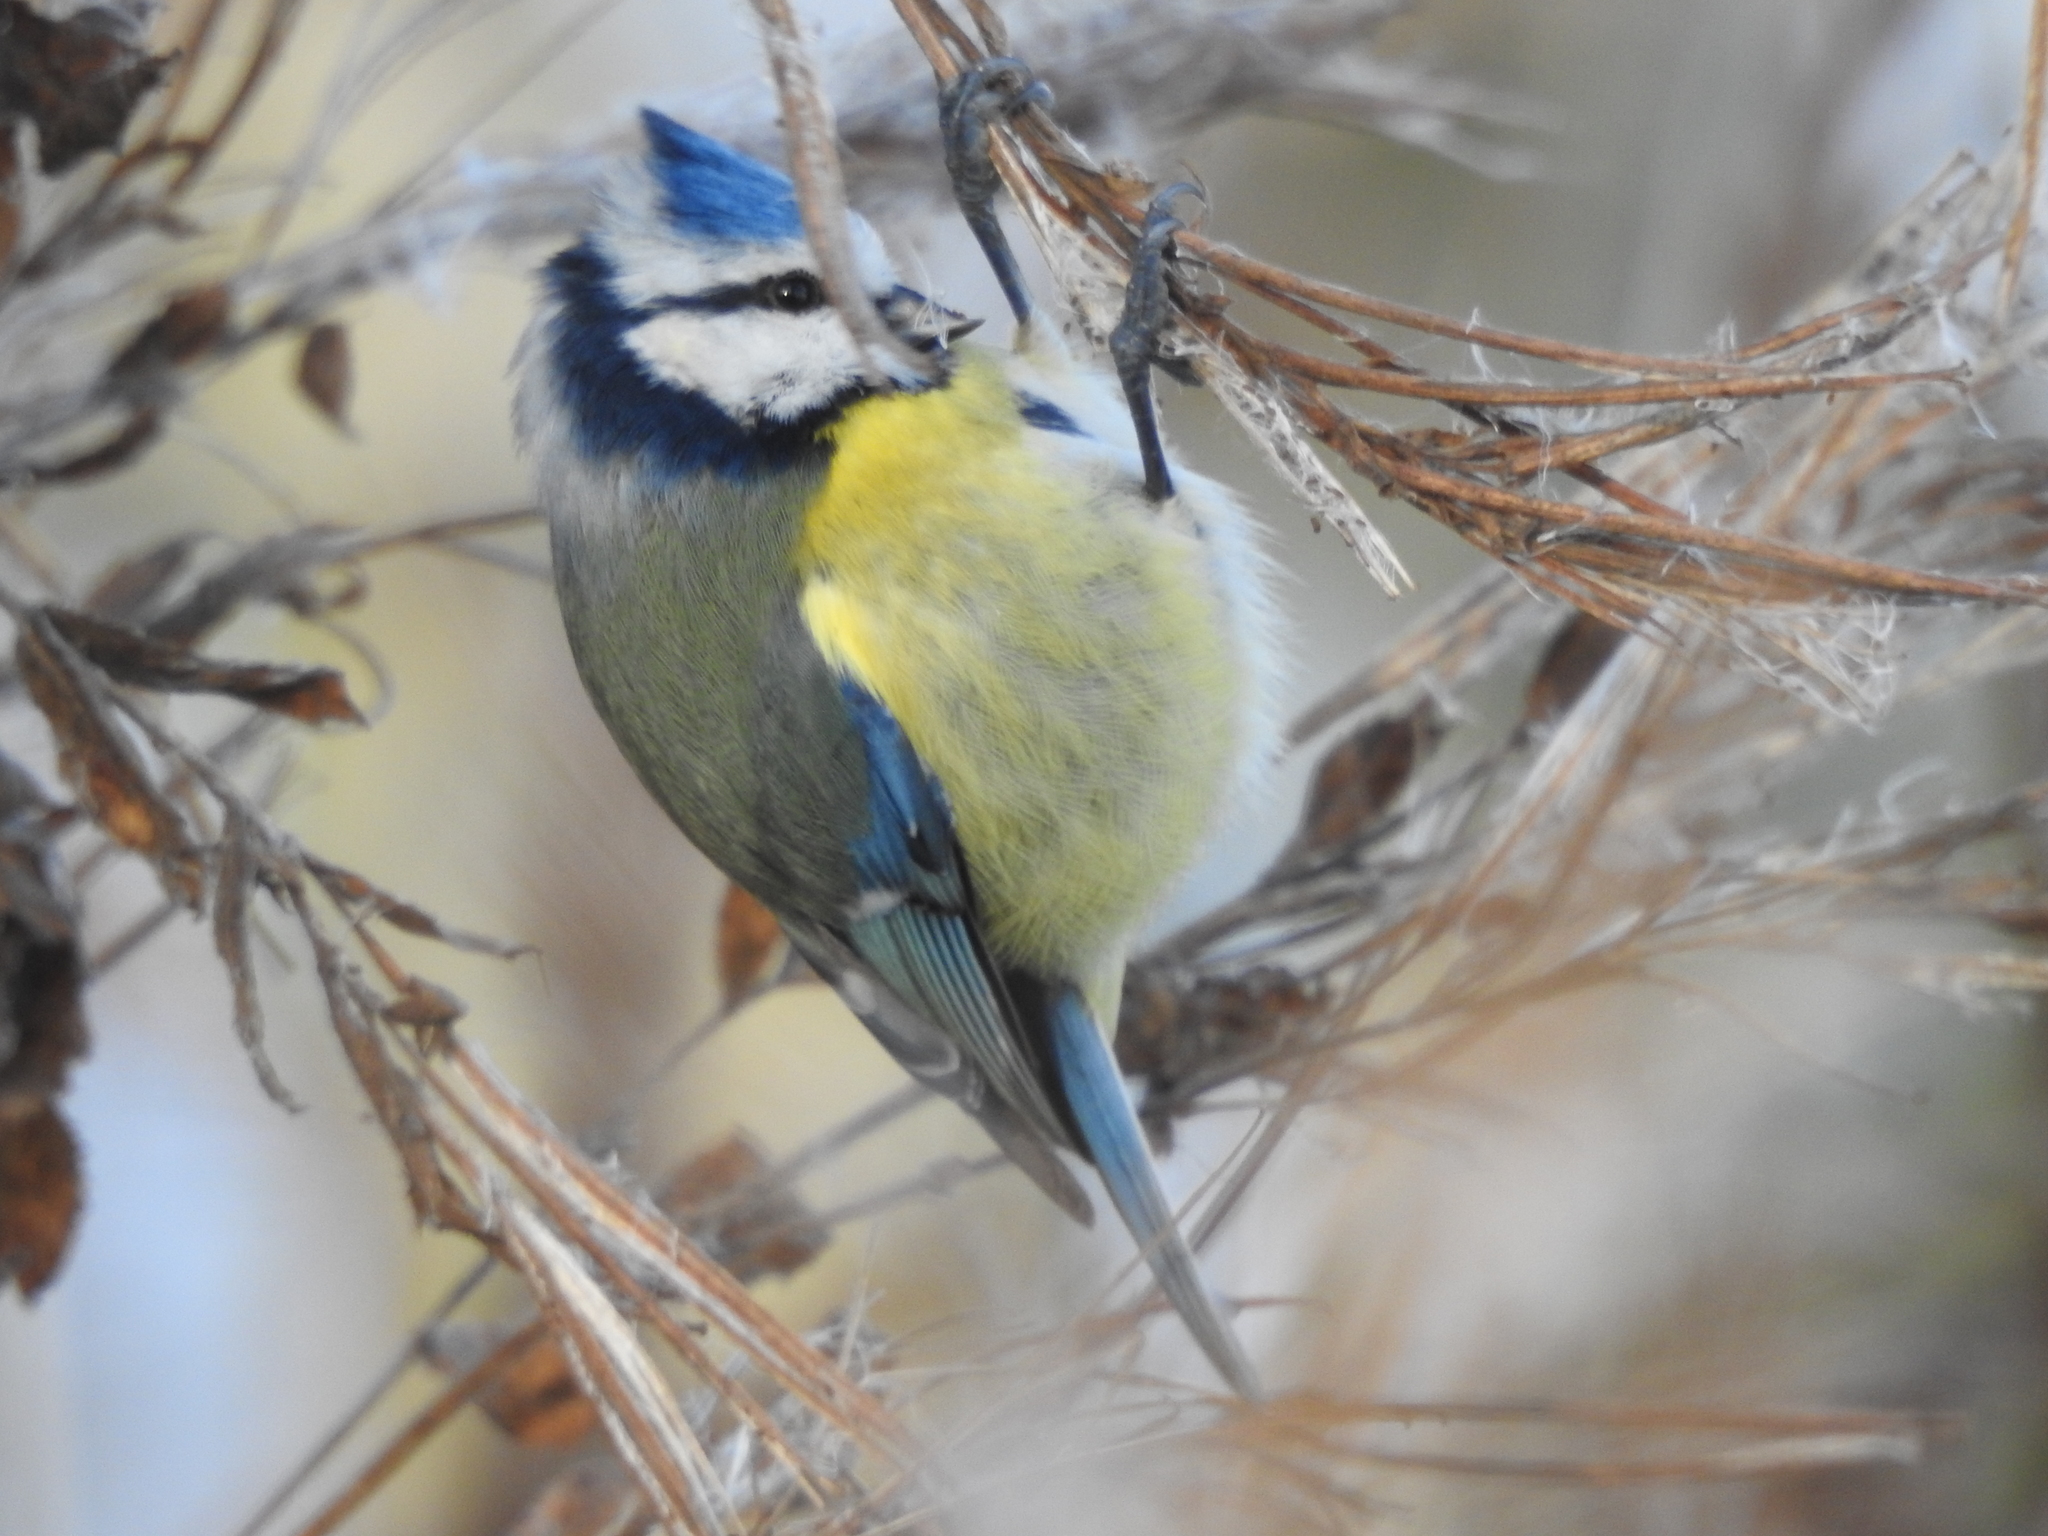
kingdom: Animalia
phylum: Chordata
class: Aves
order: Passeriformes
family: Paridae
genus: Cyanistes
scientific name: Cyanistes caeruleus
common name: Eurasian blue tit
